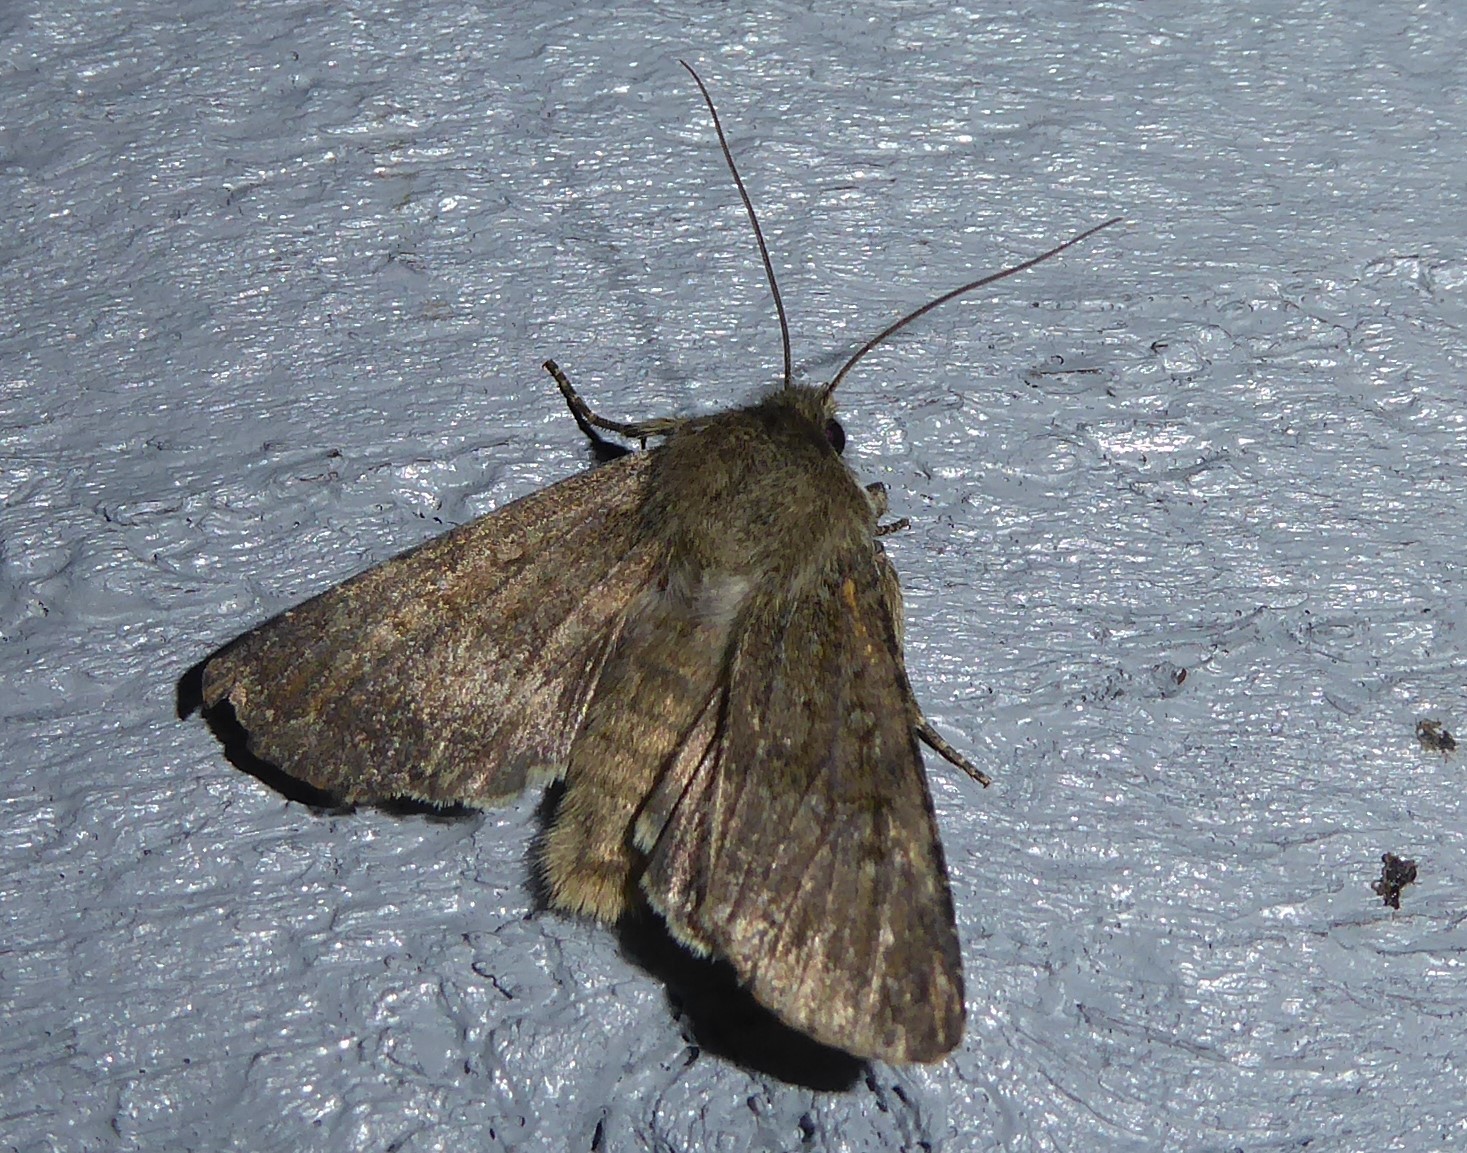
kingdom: Animalia
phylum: Arthropoda
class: Insecta
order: Lepidoptera
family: Noctuidae
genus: Ichneutica
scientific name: Ichneutica moderata
